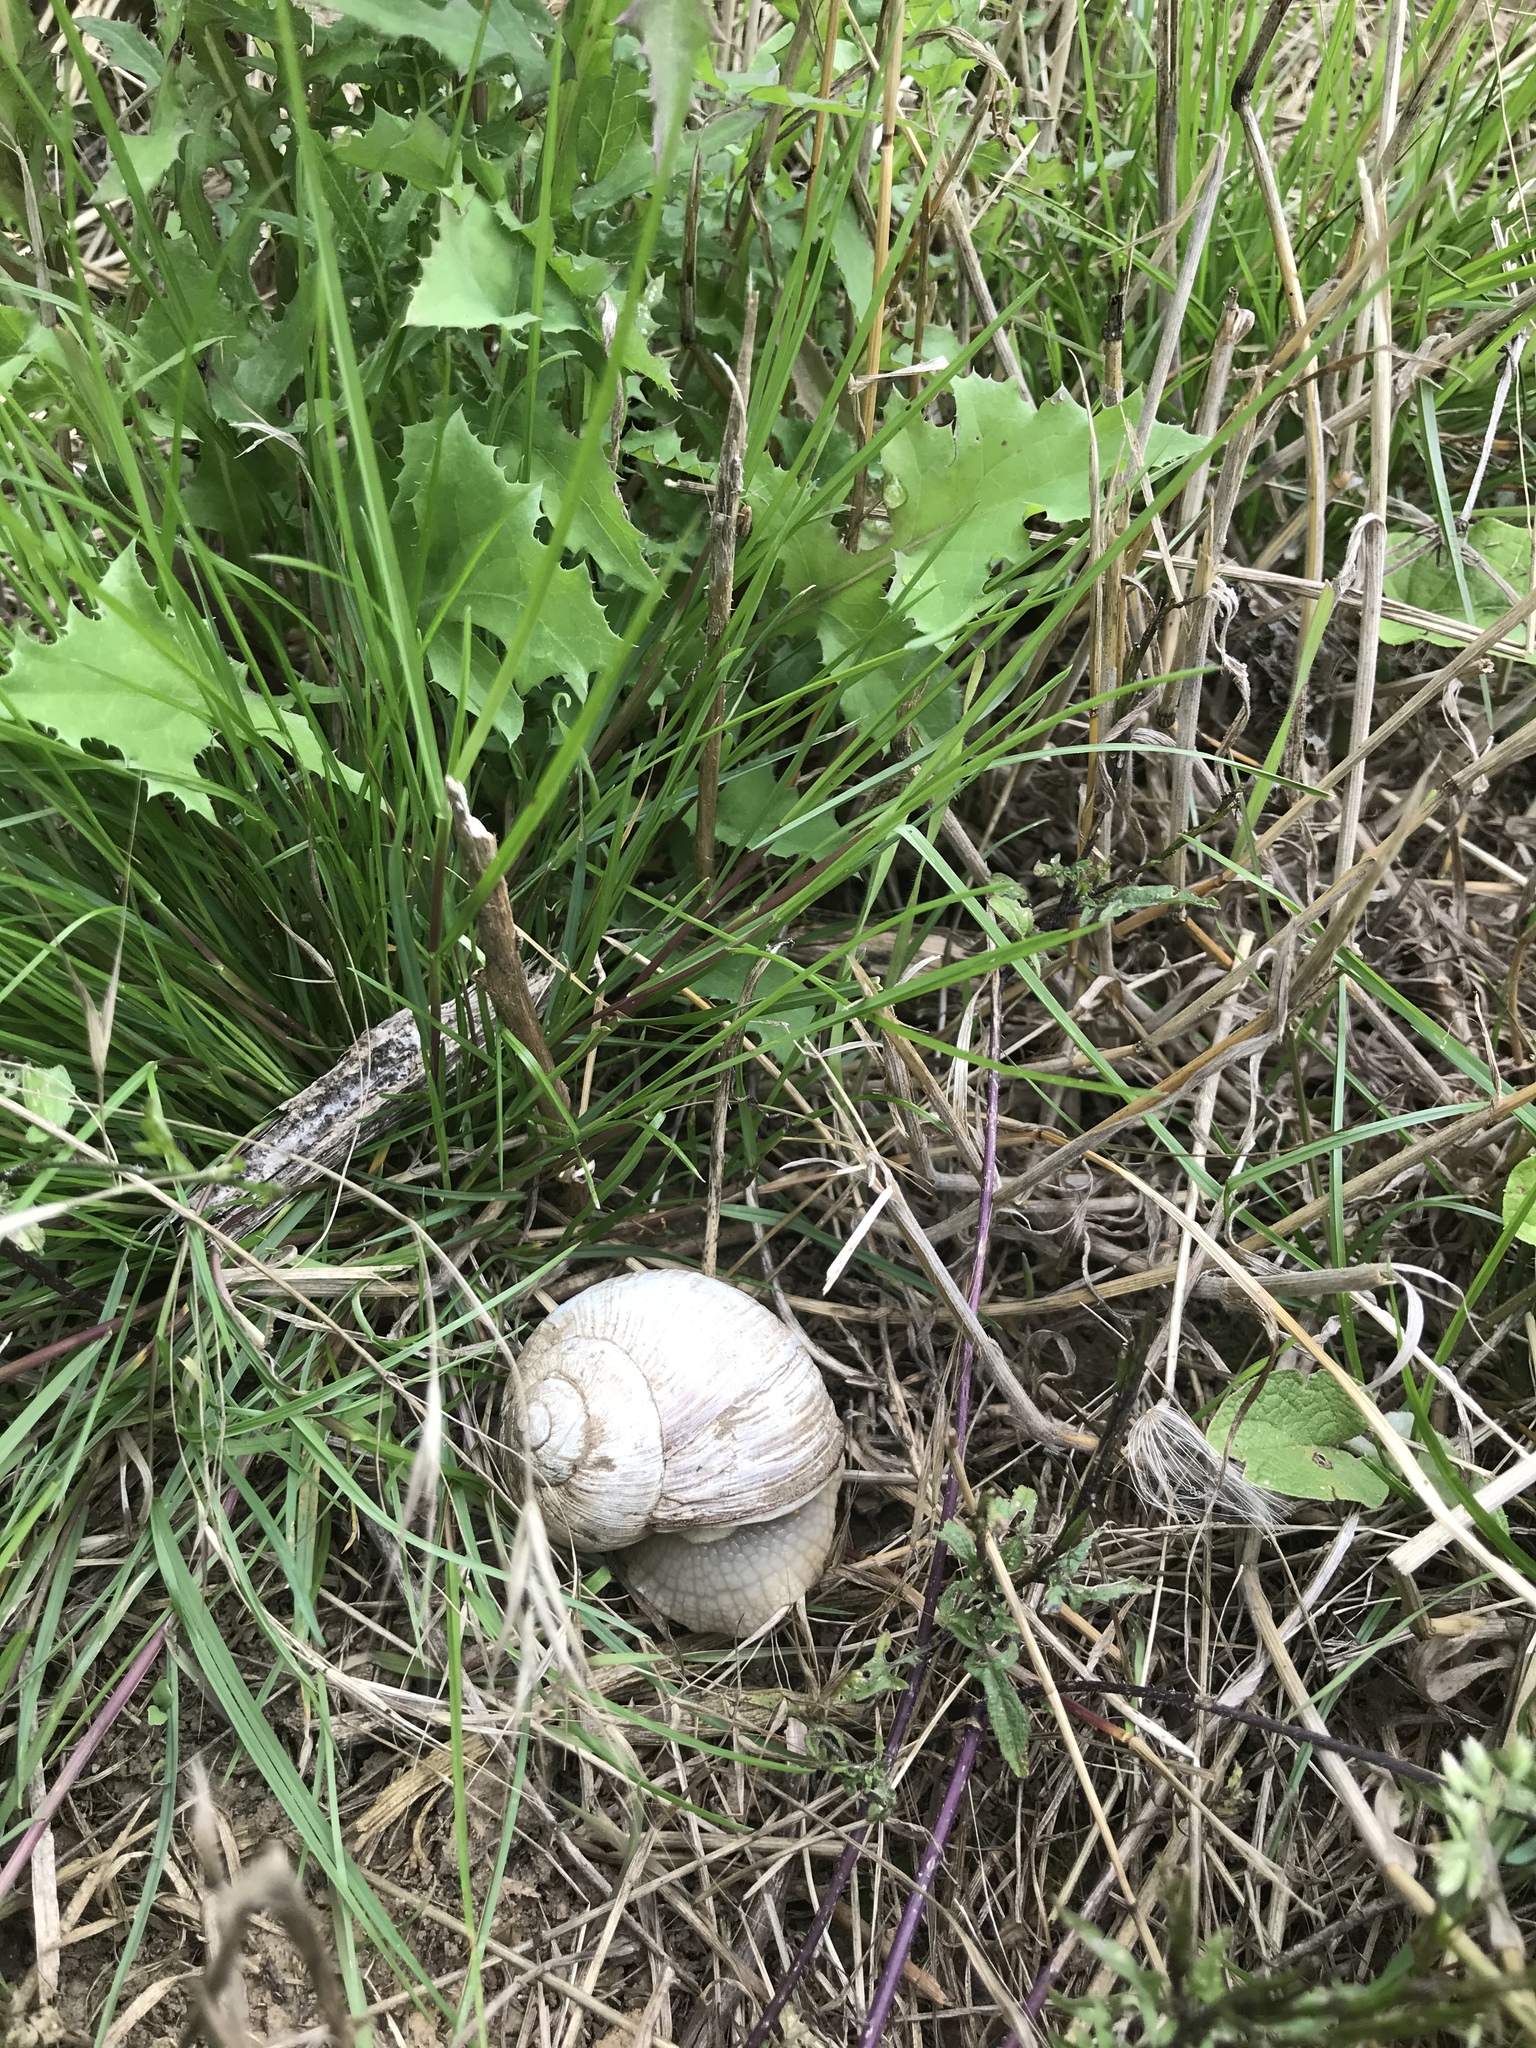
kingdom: Animalia
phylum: Mollusca
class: Gastropoda
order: Stylommatophora
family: Helicidae
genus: Helix
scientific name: Helix pomatia
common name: Roman snail
